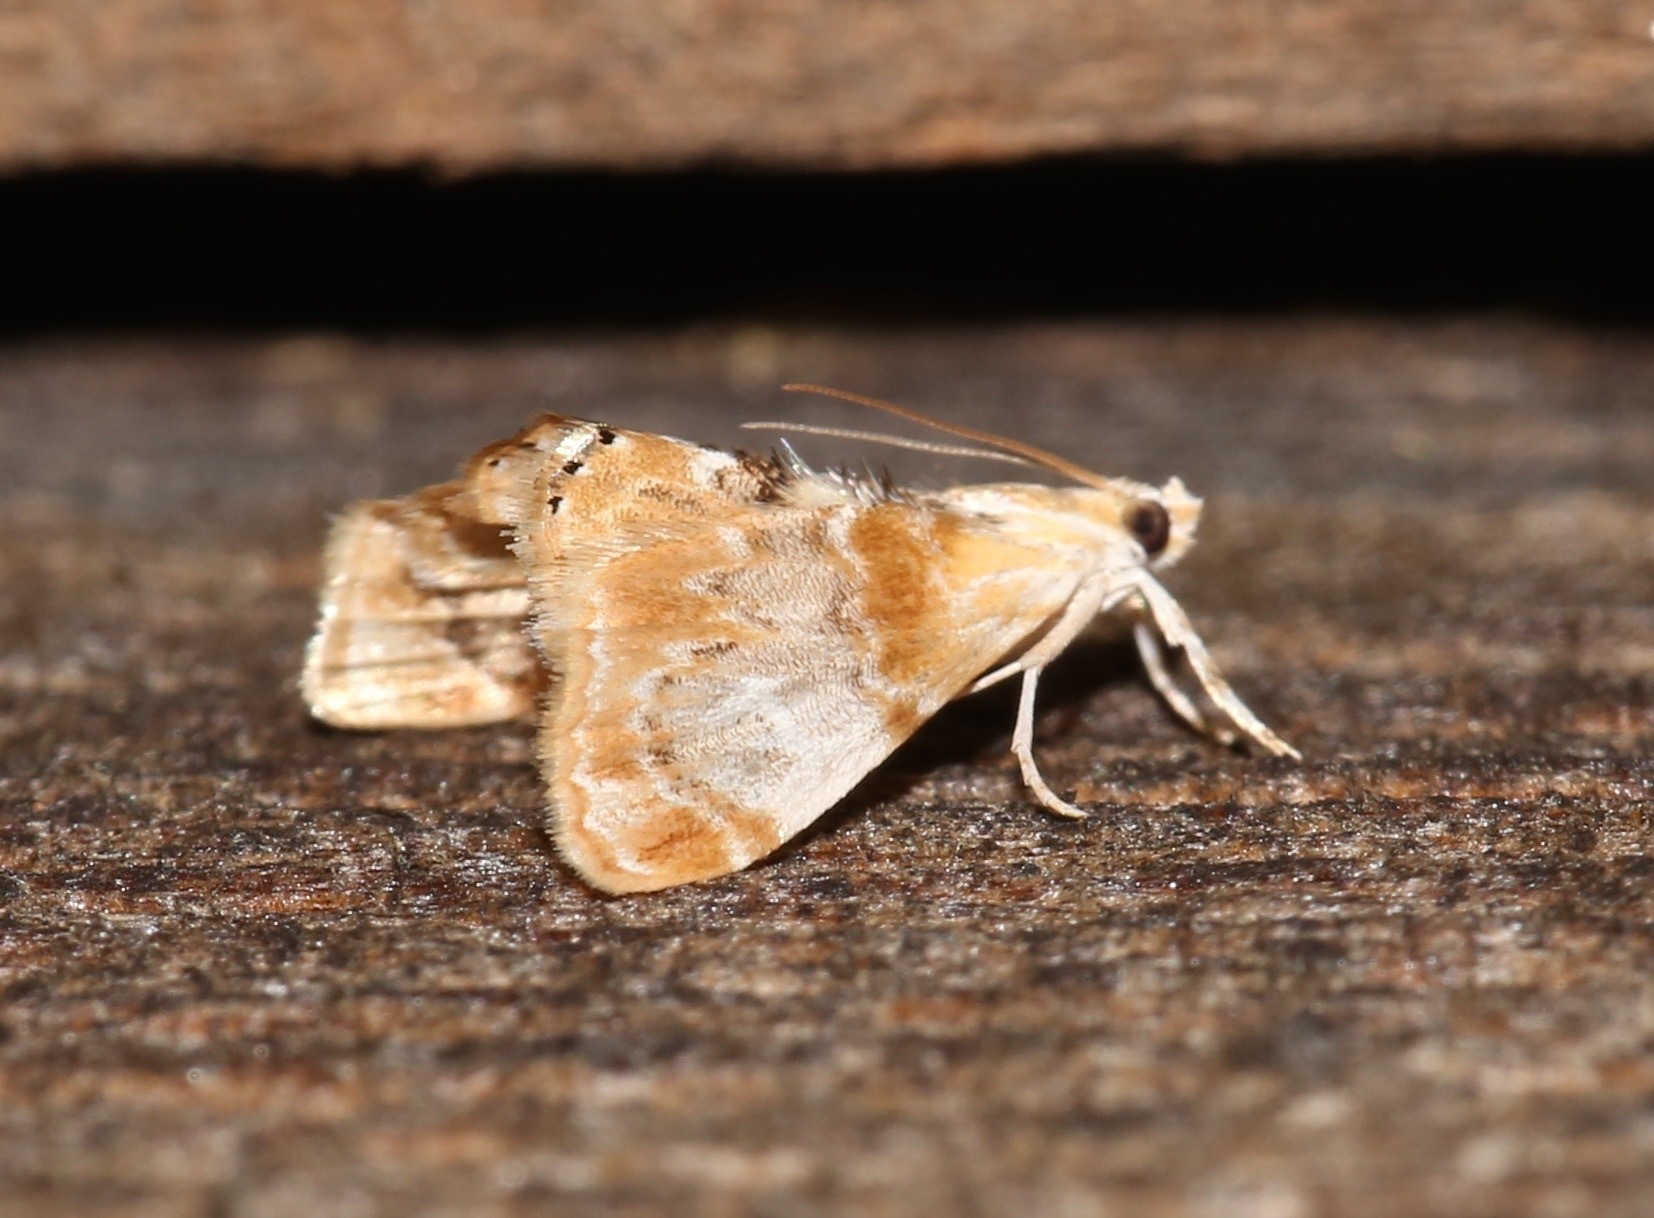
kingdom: Animalia
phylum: Arthropoda
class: Insecta
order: Lepidoptera
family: Crambidae
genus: Dicymolomia
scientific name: Dicymolomia julianalis
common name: Julia's dicymolomia moth
